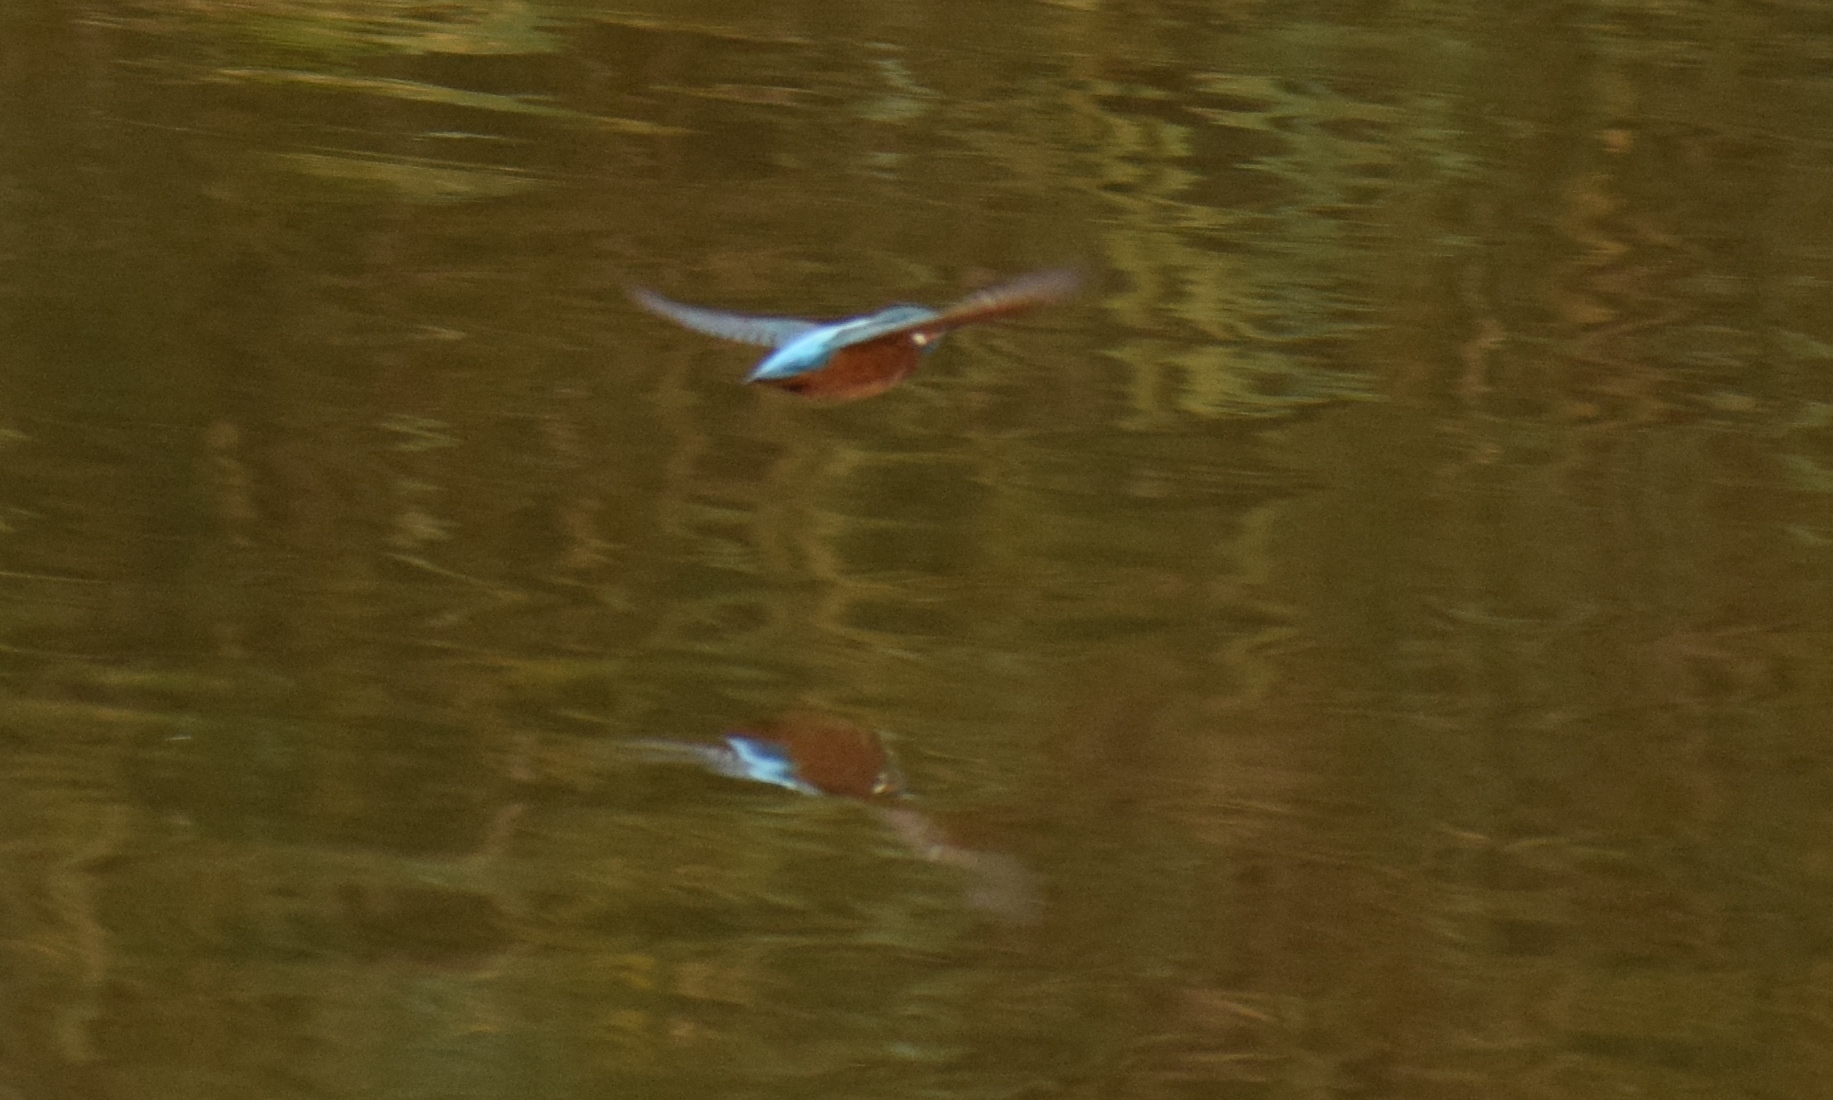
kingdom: Animalia
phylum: Chordata
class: Aves
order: Coraciiformes
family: Alcedinidae
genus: Alcedo
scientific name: Alcedo atthis
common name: Common kingfisher
